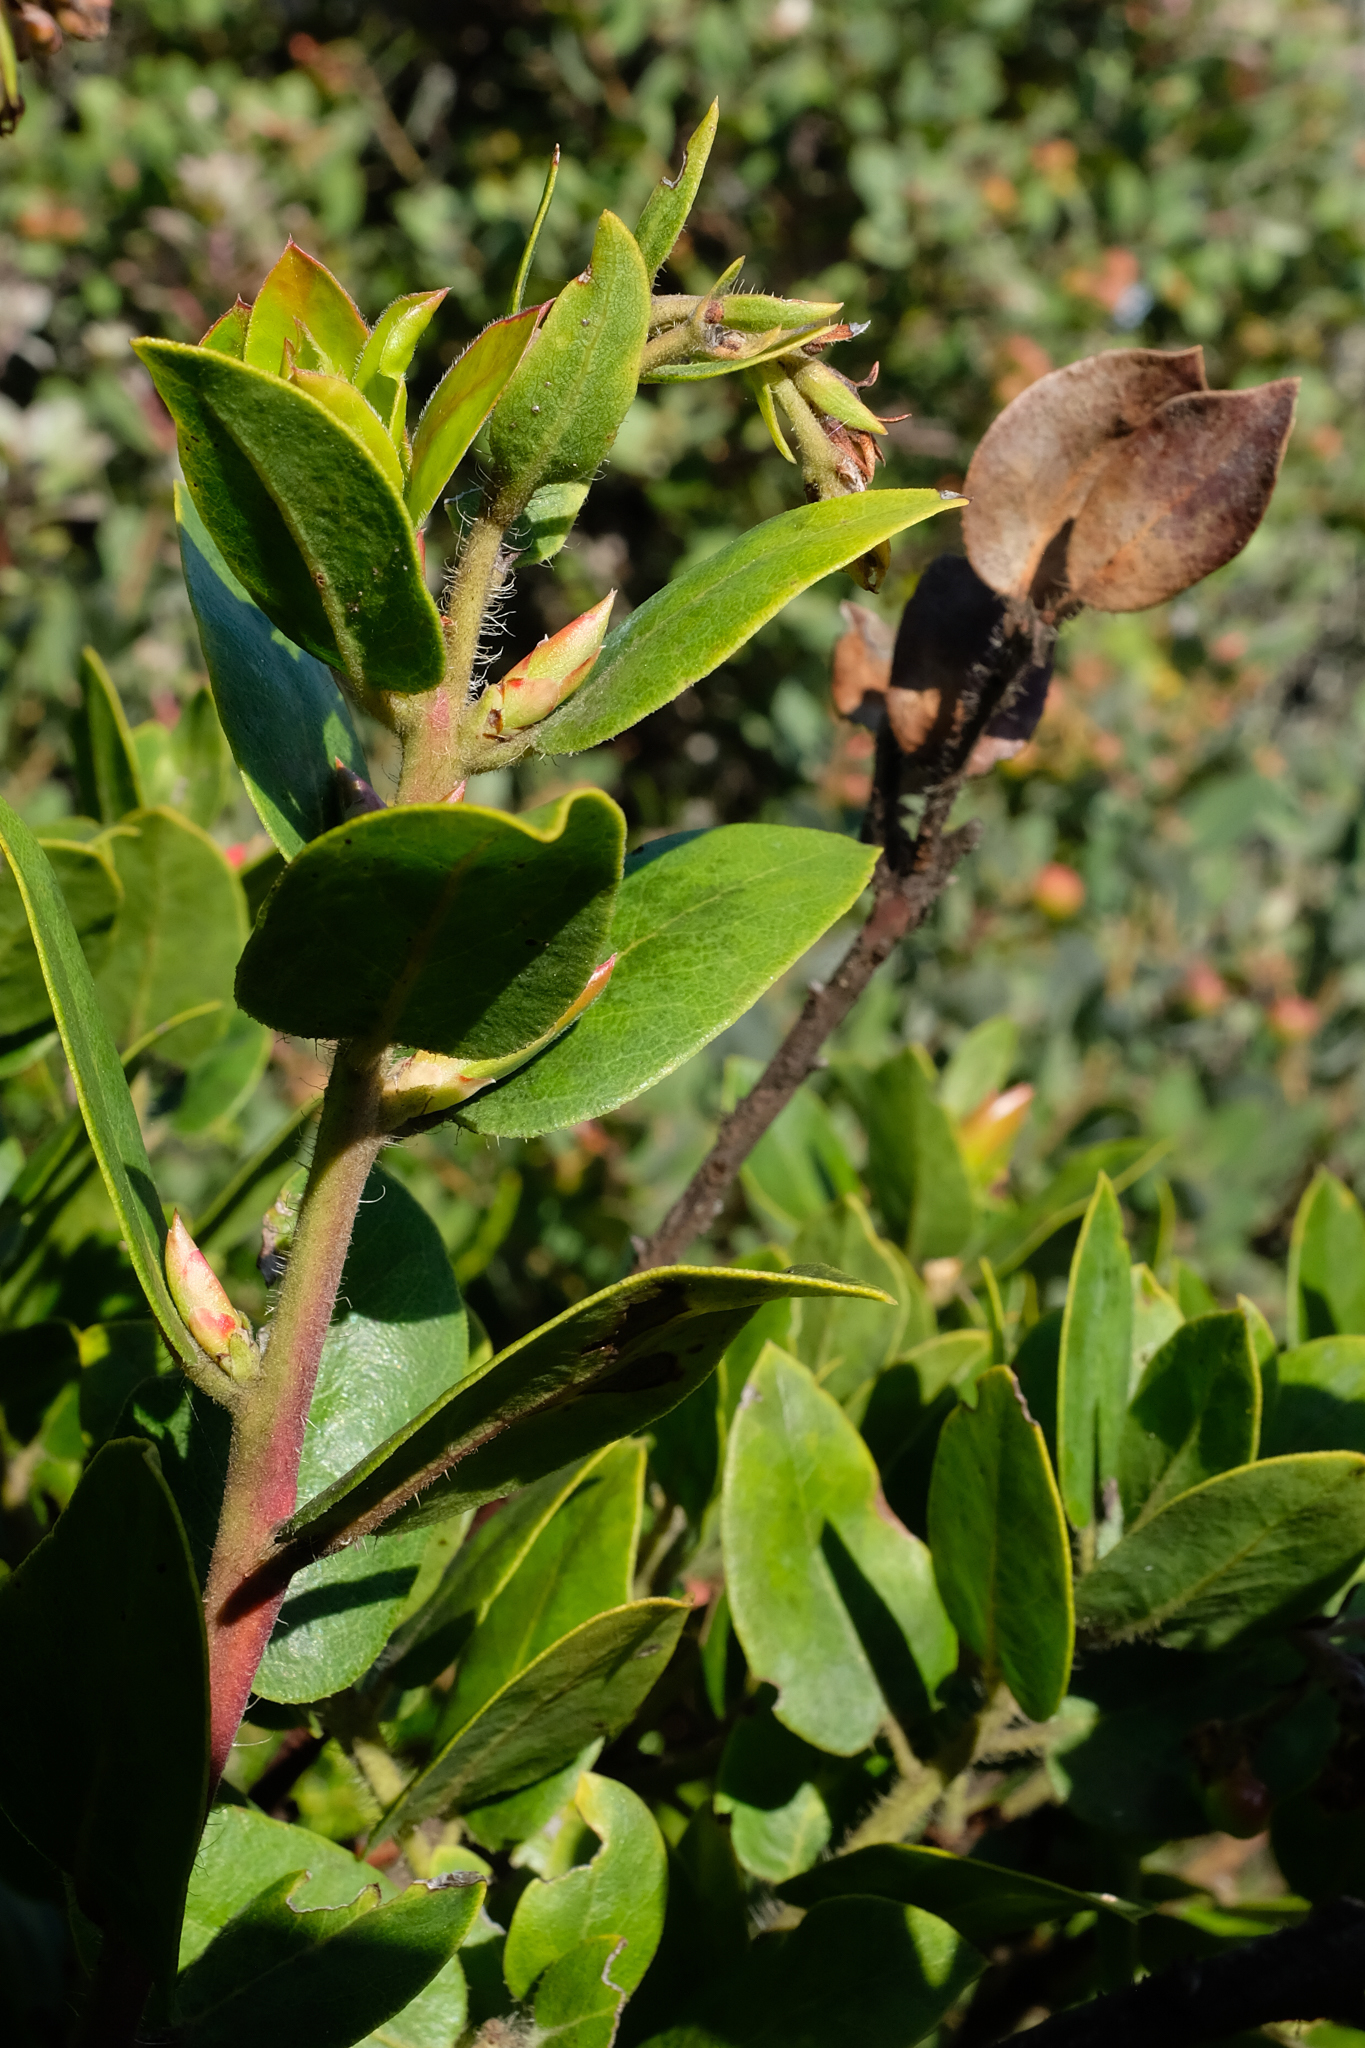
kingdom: Plantae
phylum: Tracheophyta
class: Magnoliopsida
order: Ericales
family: Ericaceae
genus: Arctostaphylos
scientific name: Arctostaphylos crustacea
